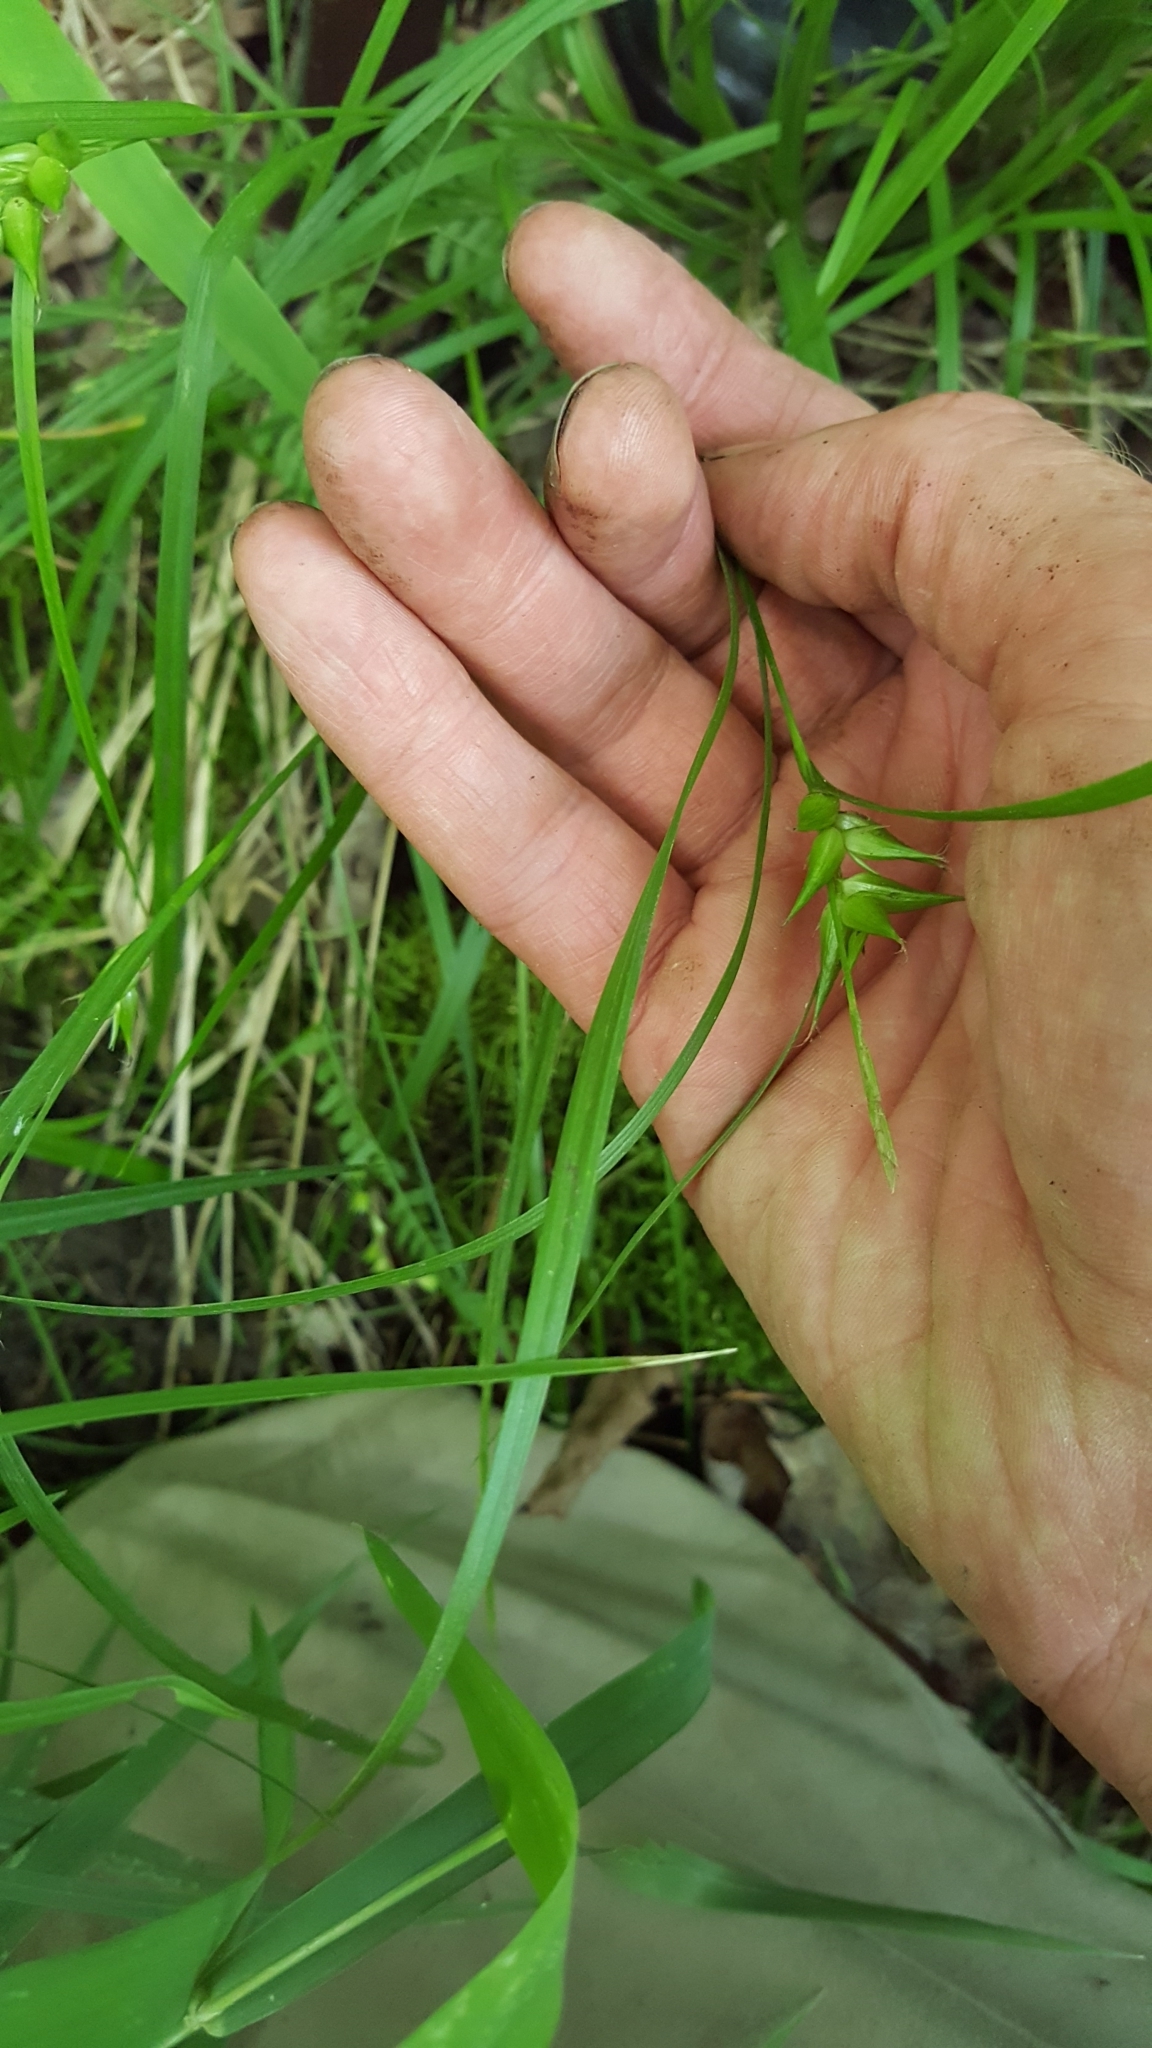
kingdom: Plantae
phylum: Tracheophyta
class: Liliopsida
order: Poales
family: Cyperaceae
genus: Carex
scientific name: Carex intumescens
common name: Greater bladder sedge
